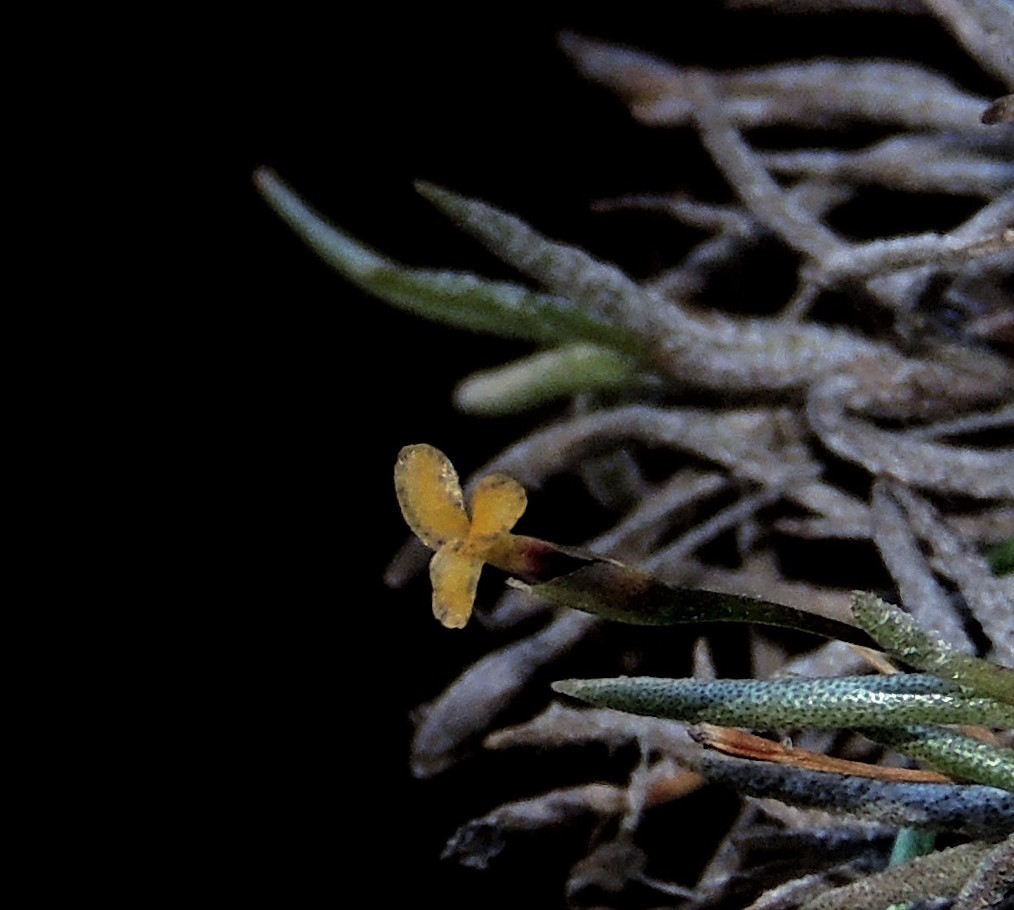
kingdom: Plantae
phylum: Tracheophyta
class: Liliopsida
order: Poales
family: Bromeliaceae
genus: Tillandsia
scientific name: Tillandsia capillaris
